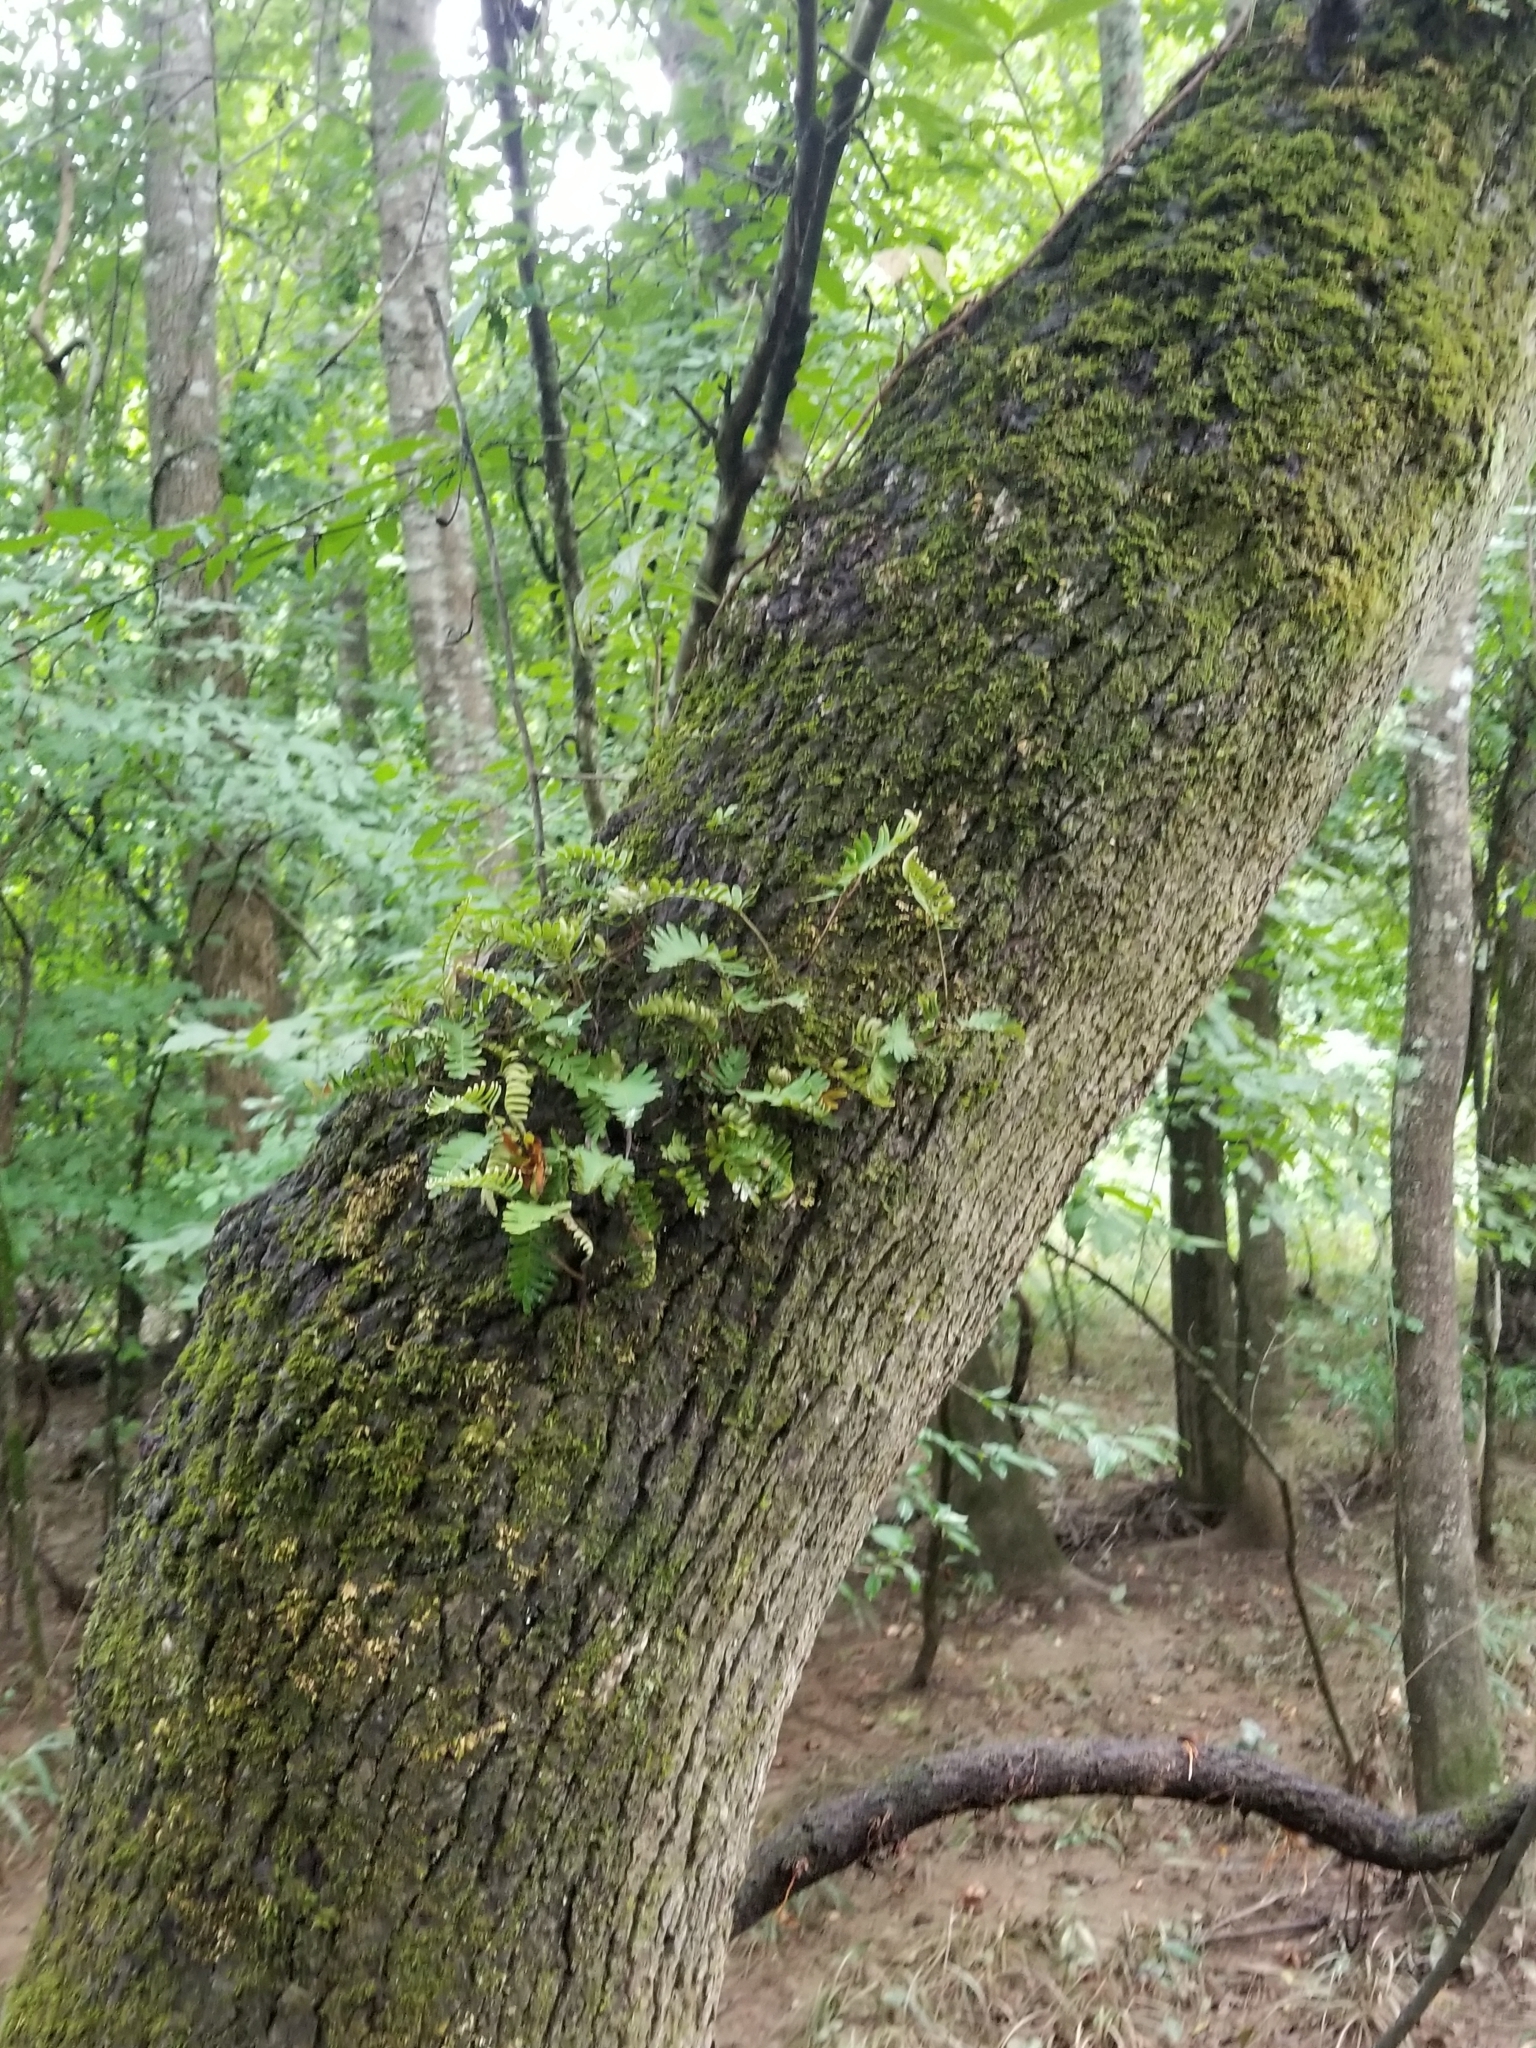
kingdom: Plantae
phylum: Tracheophyta
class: Polypodiopsida
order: Polypodiales
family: Polypodiaceae
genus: Pleopeltis
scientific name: Pleopeltis michauxiana
